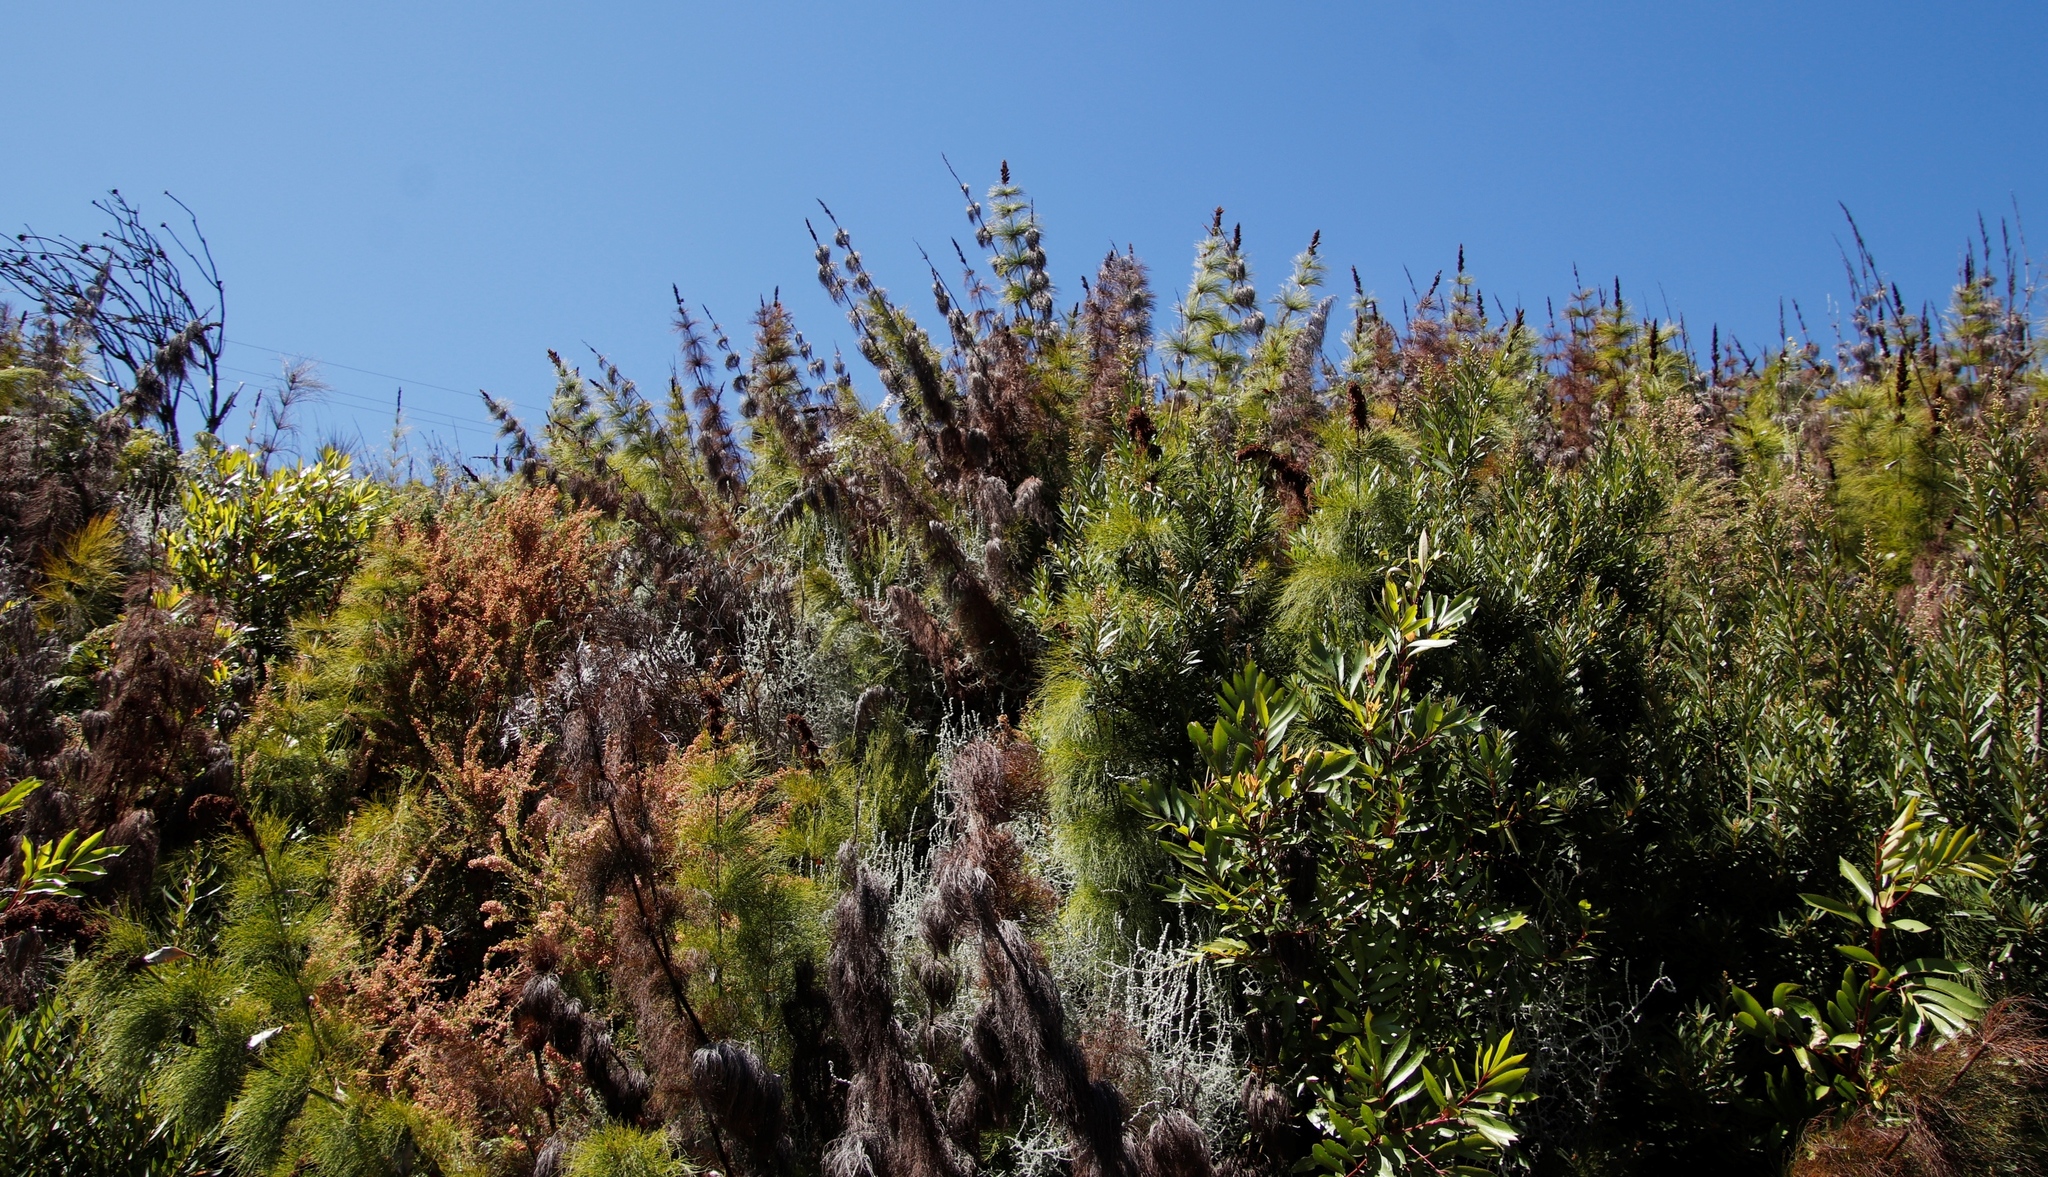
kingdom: Plantae
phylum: Tracheophyta
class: Liliopsida
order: Poales
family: Restionaceae
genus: Elegia
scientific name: Elegia capensis
